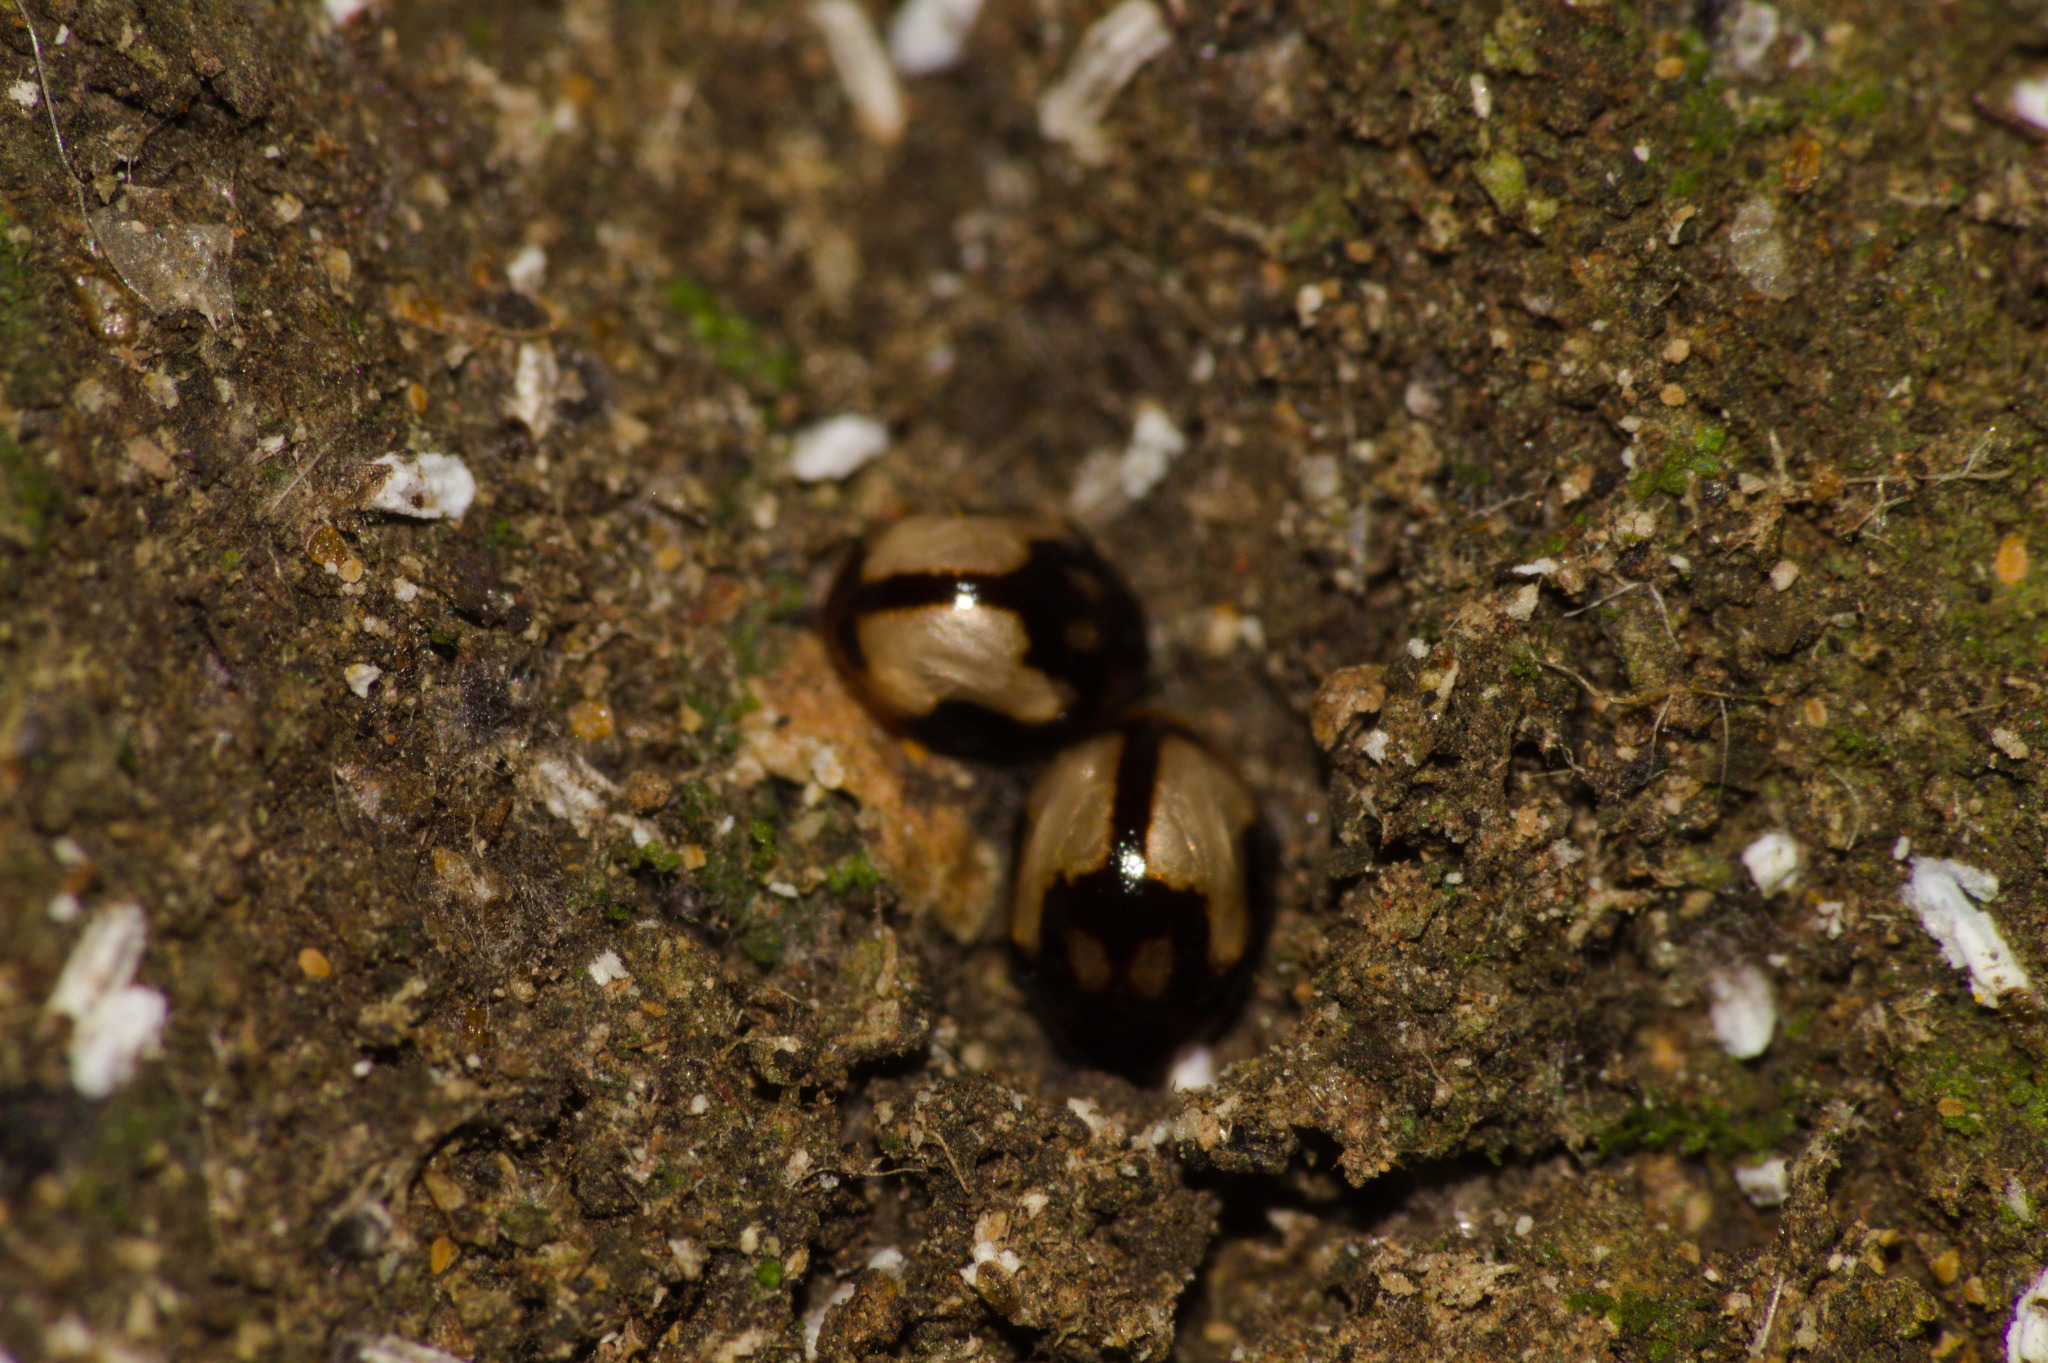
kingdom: Animalia
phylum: Arthropoda
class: Insecta
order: Coleoptera
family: Coccinellidae
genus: Calloeneis
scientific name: Calloeneis
